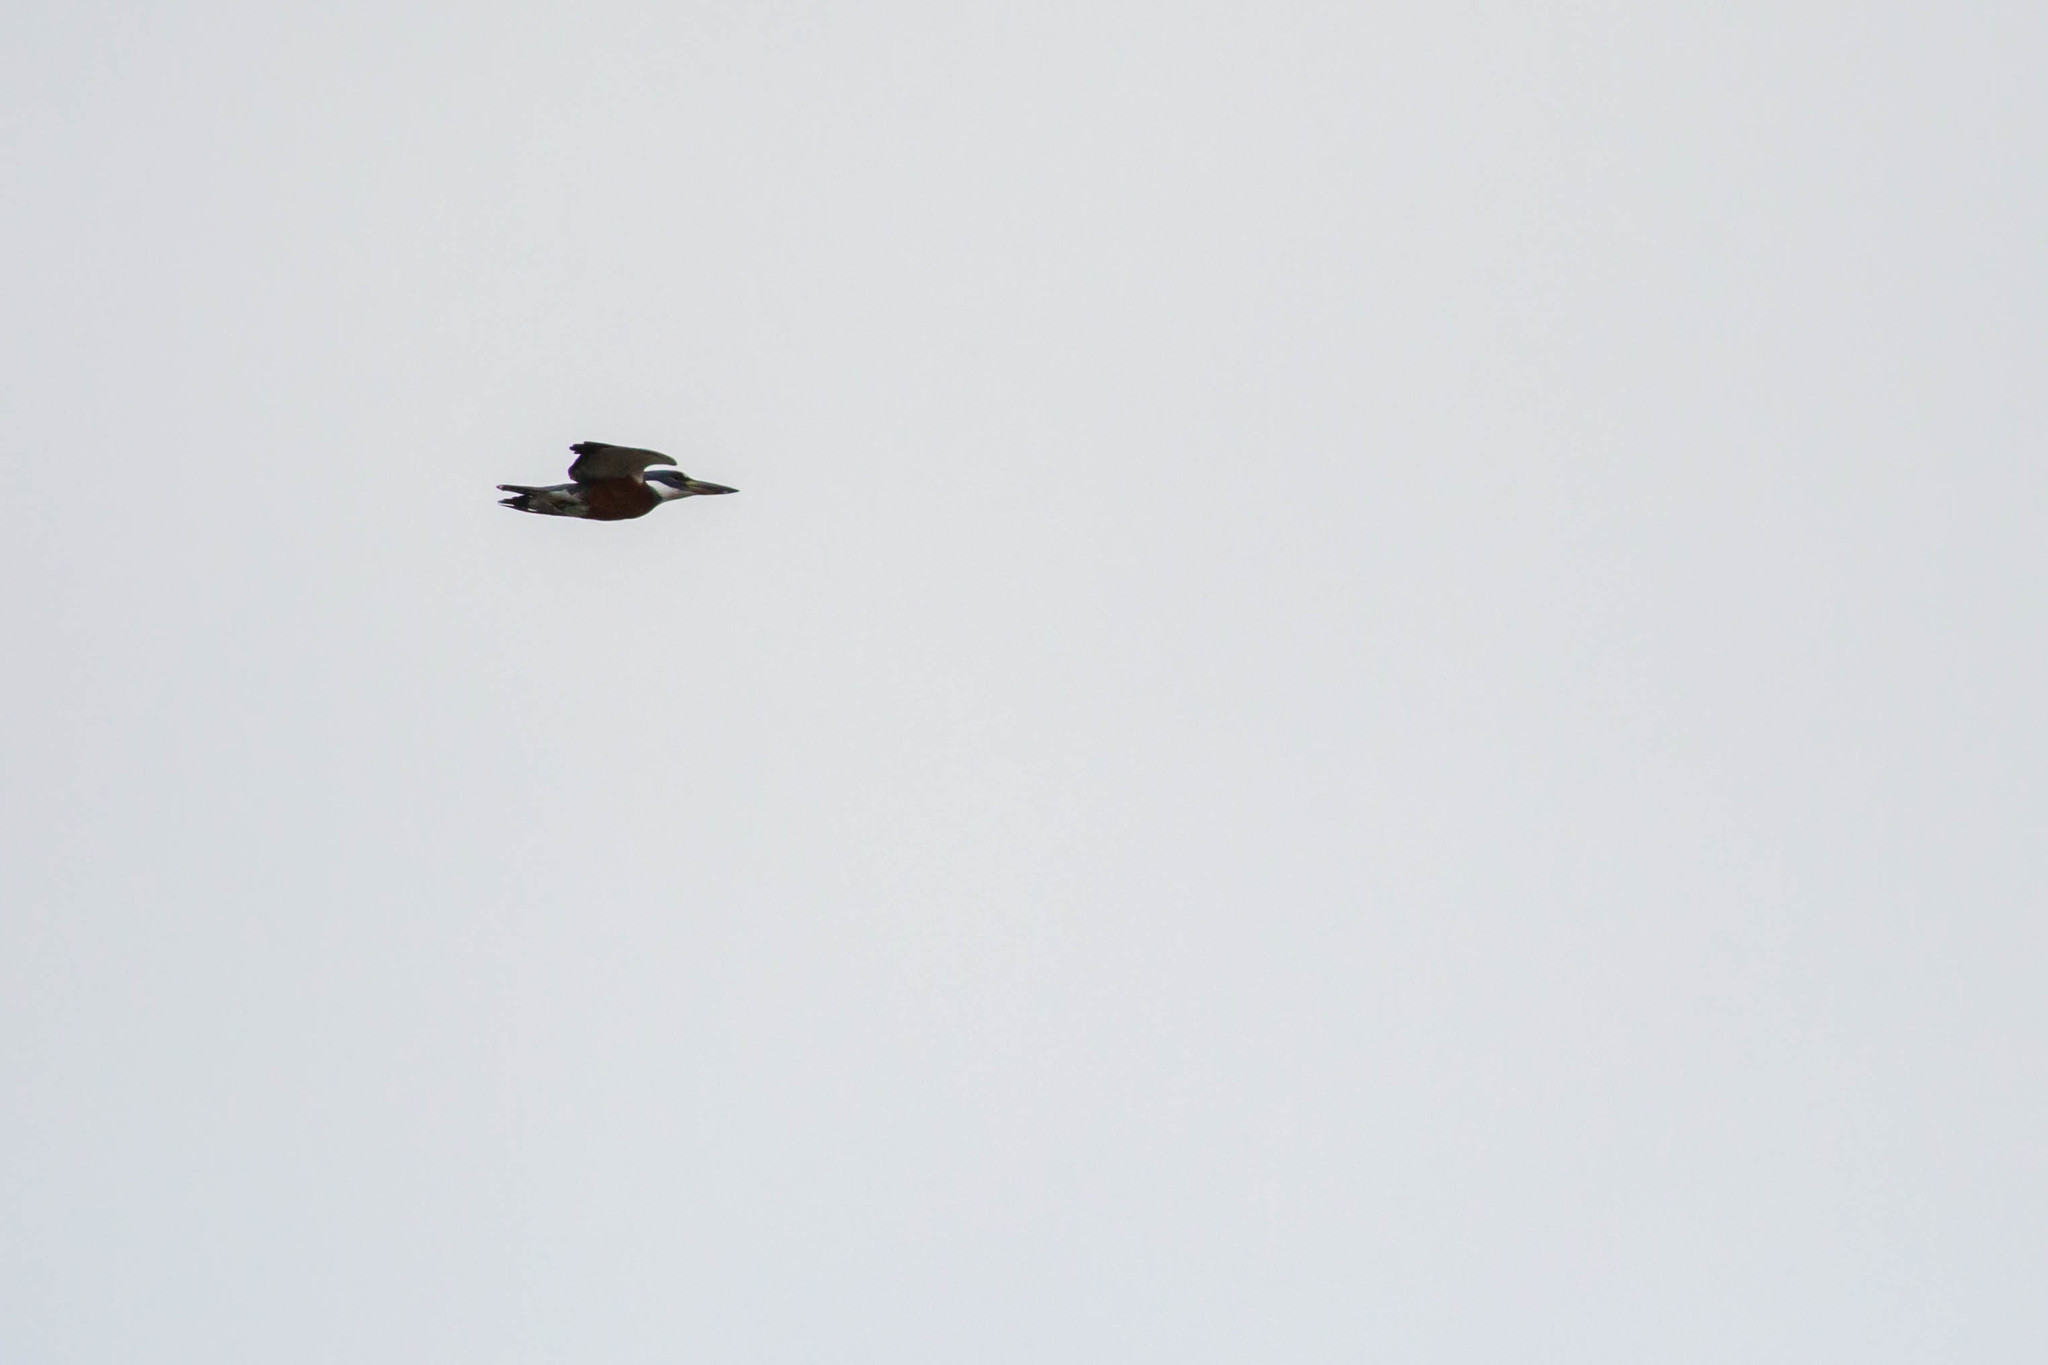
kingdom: Animalia
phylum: Chordata
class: Aves
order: Coraciiformes
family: Alcedinidae
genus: Megaceryle
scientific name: Megaceryle torquata
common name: Ringed kingfisher
